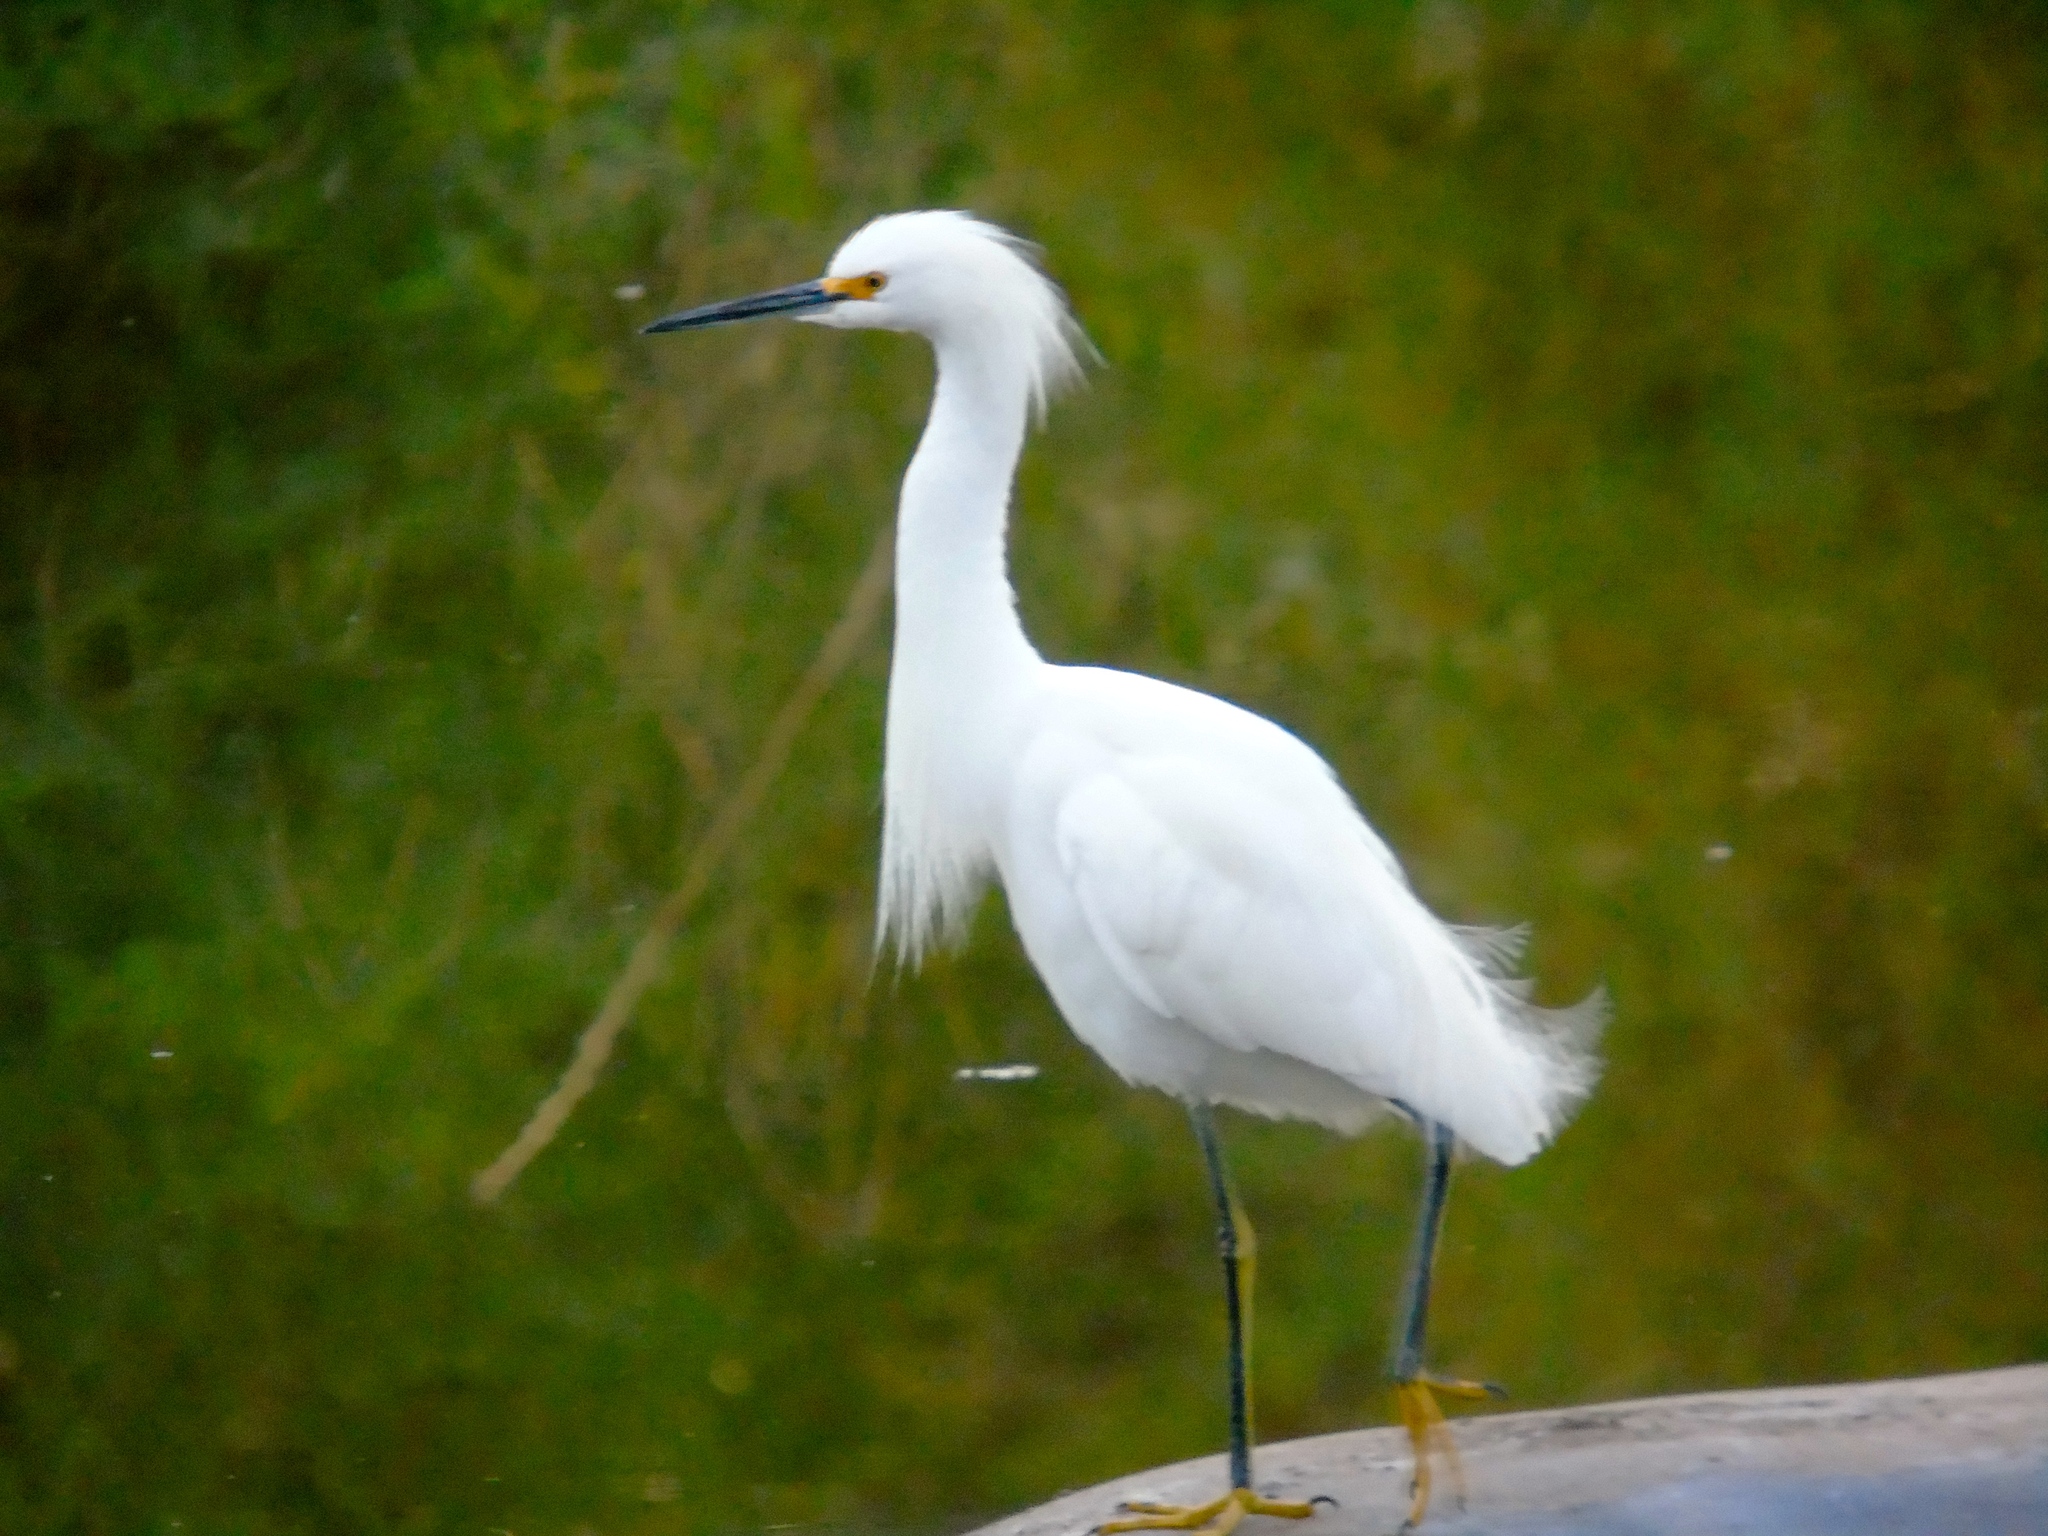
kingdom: Animalia
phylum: Chordata
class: Aves
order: Pelecaniformes
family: Ardeidae
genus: Egretta
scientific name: Egretta thula
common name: Snowy egret
